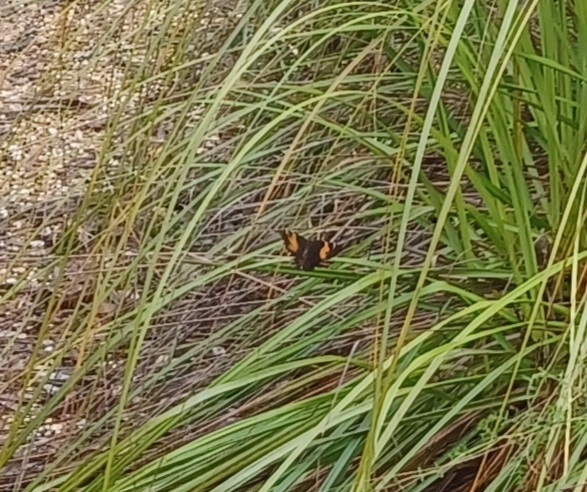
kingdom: Animalia
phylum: Arthropoda
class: Insecta
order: Lepidoptera
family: Nymphalidae
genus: Tisiphone
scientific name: Tisiphone abeona
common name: Swordgrass brown
